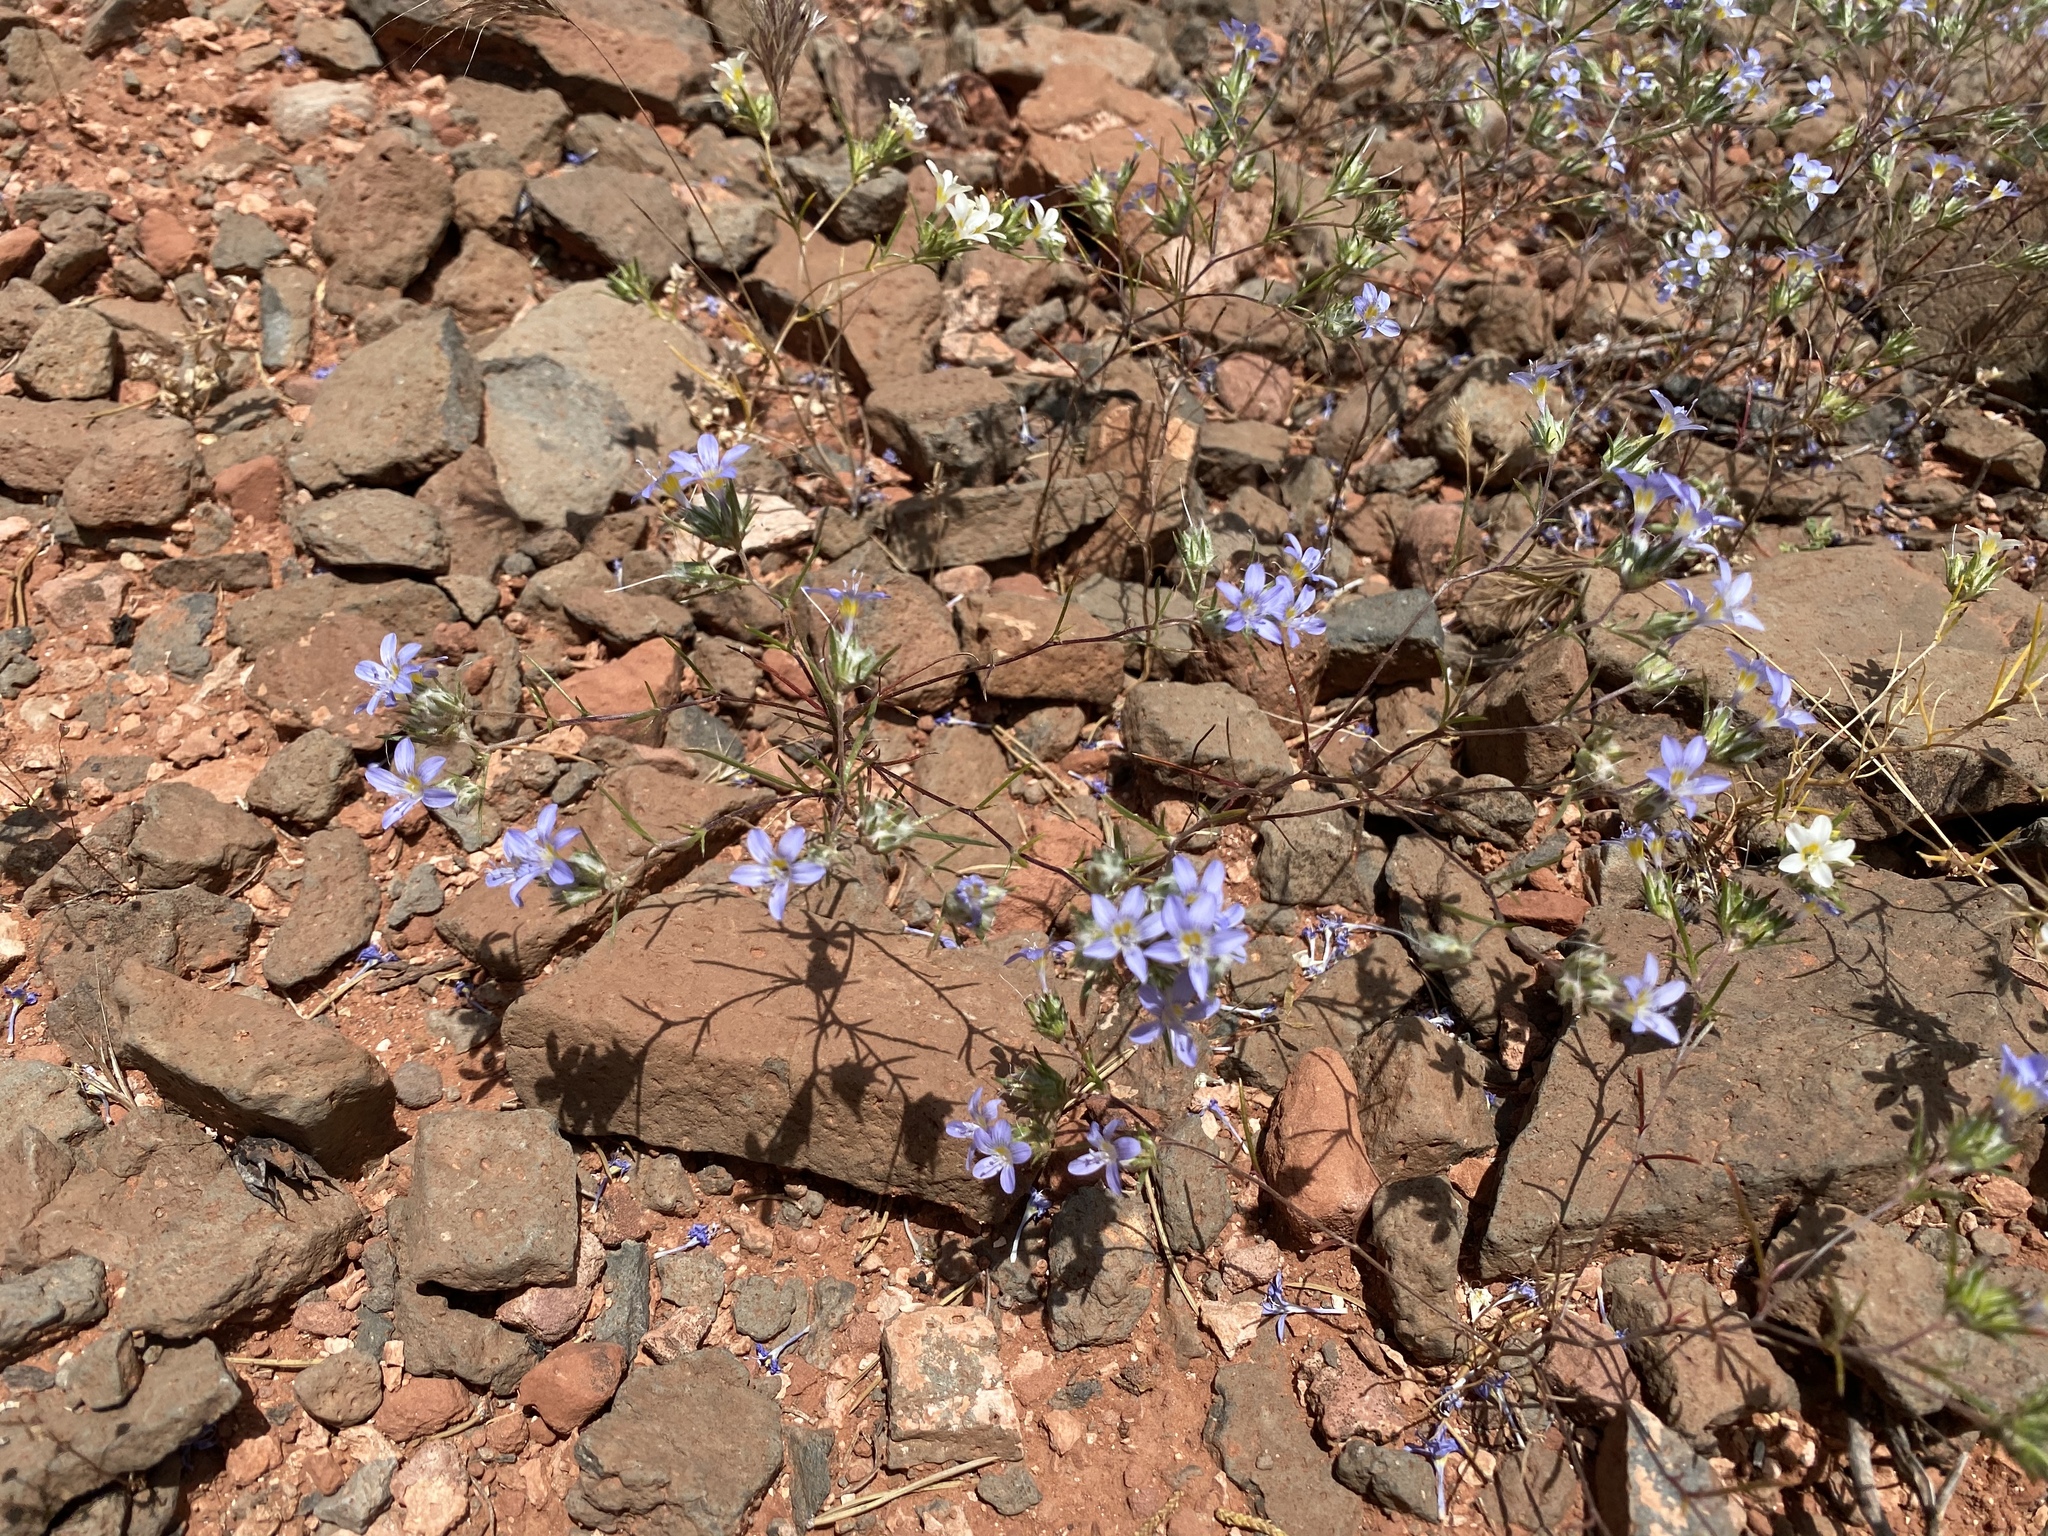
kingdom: Plantae
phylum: Tracheophyta
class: Magnoliopsida
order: Ericales
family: Polemoniaceae
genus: Eriastrum
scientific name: Eriastrum eremicum
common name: Desert eriastrum
